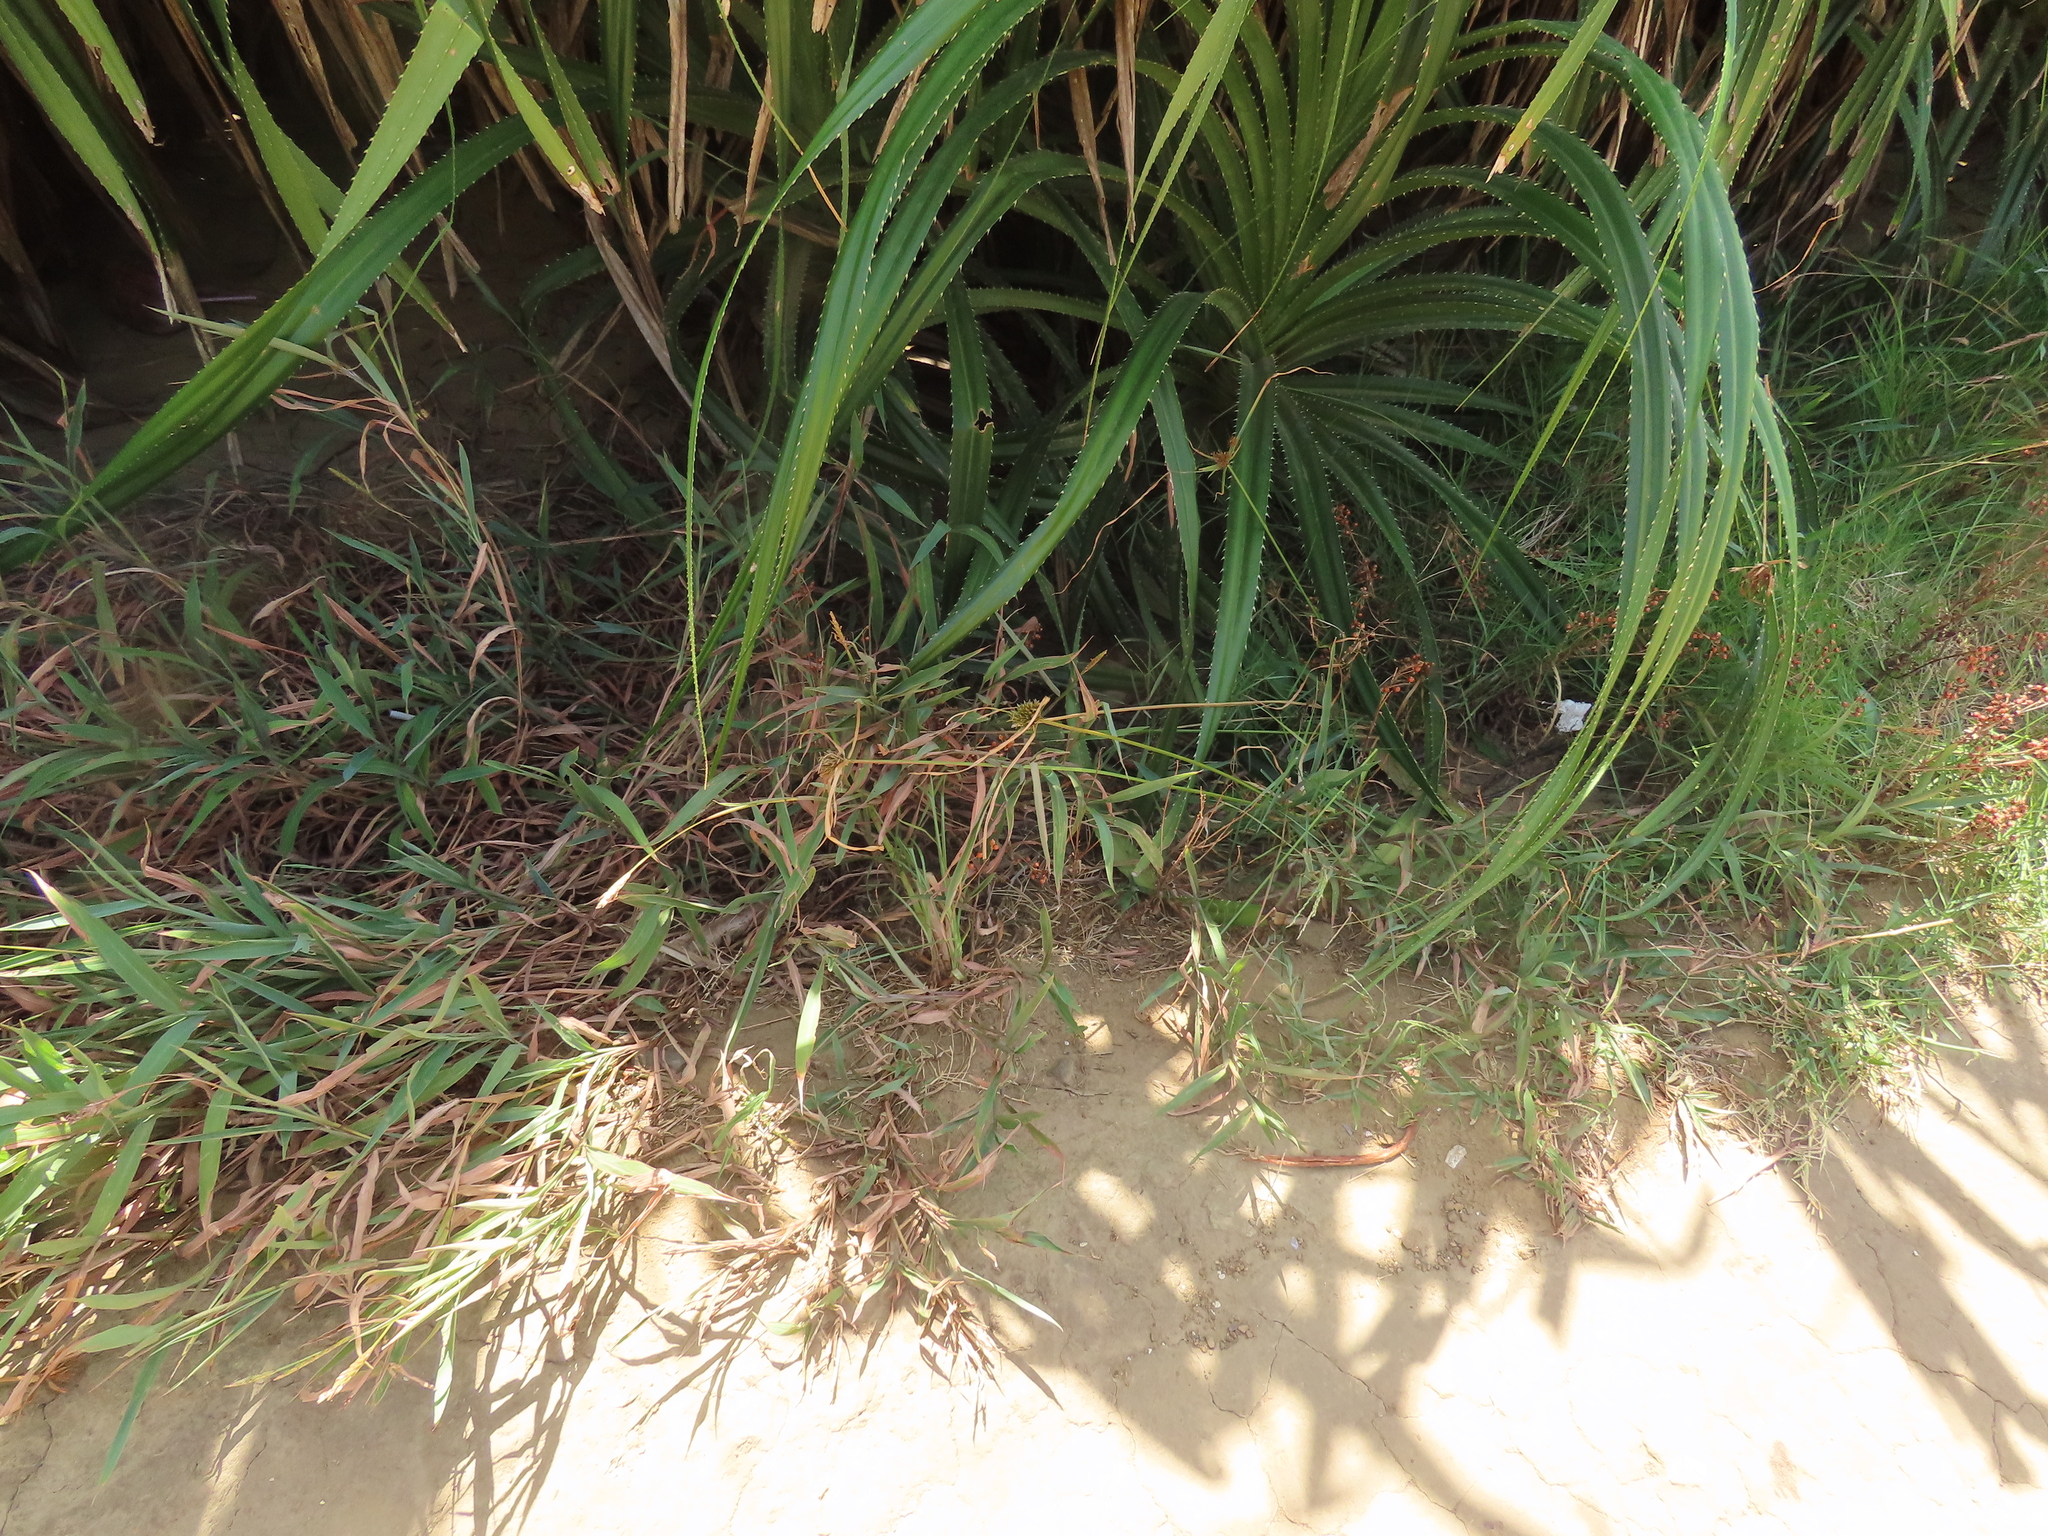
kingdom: Plantae
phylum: Tracheophyta
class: Liliopsida
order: Poales
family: Cyperaceae
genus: Cyperus
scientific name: Cyperus polystachyos
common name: Bunchy flat sedge
